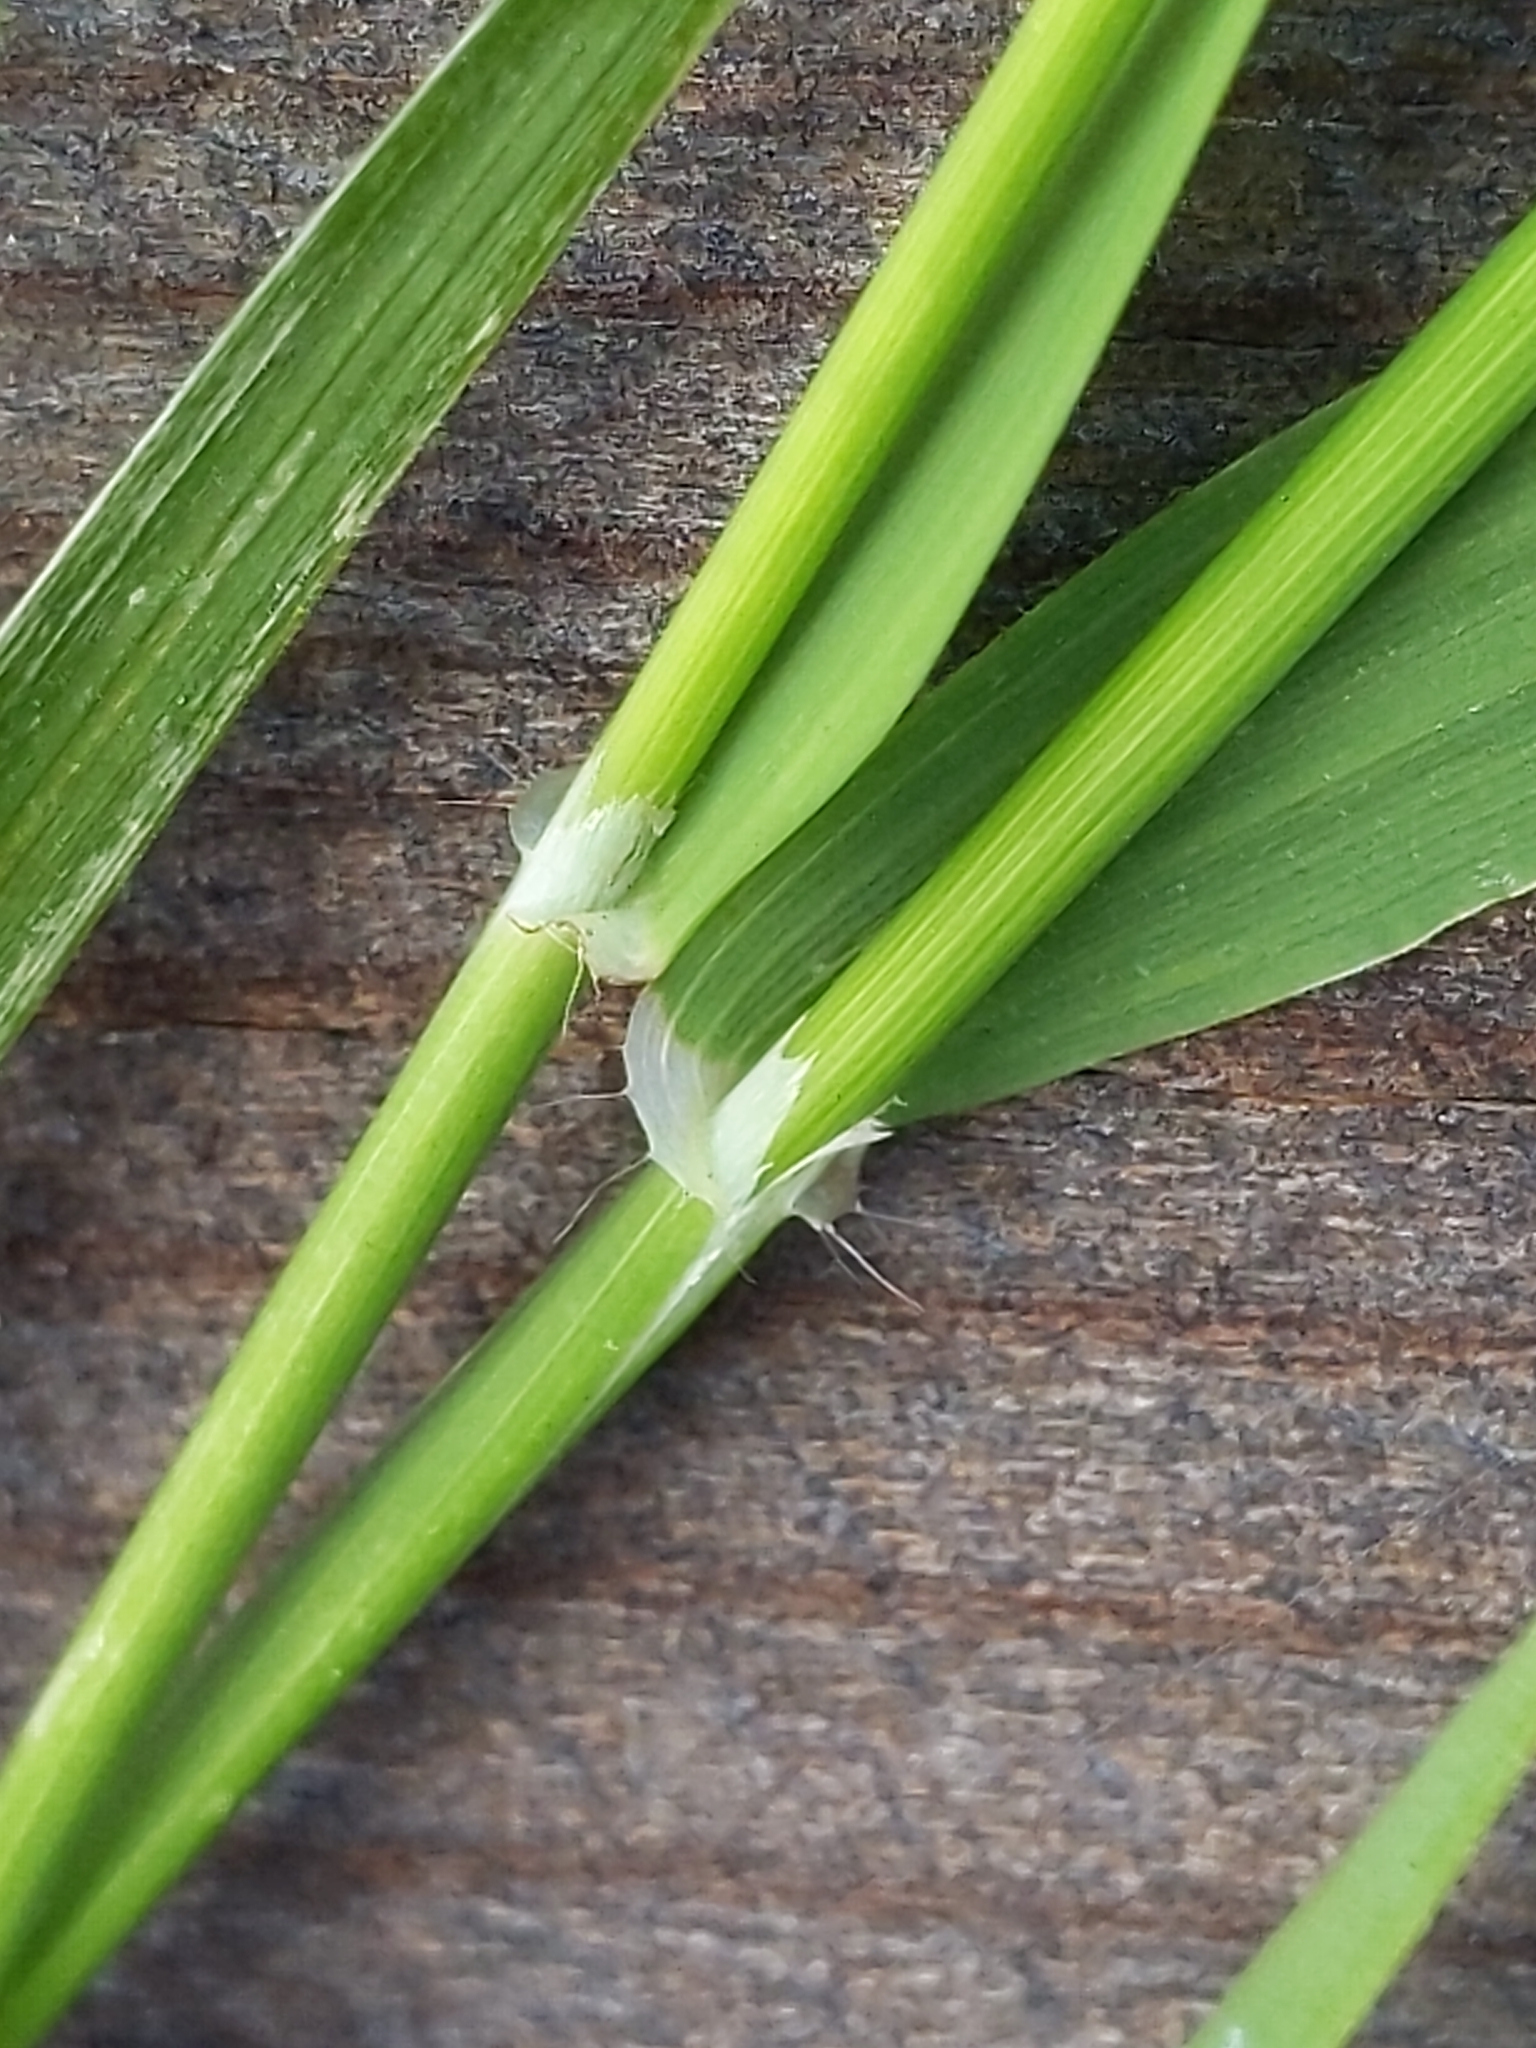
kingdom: Plantae
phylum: Tracheophyta
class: Liliopsida
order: Poales
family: Poaceae
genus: Ehrharta
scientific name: Ehrharta erecta
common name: Panic veldtgrass
